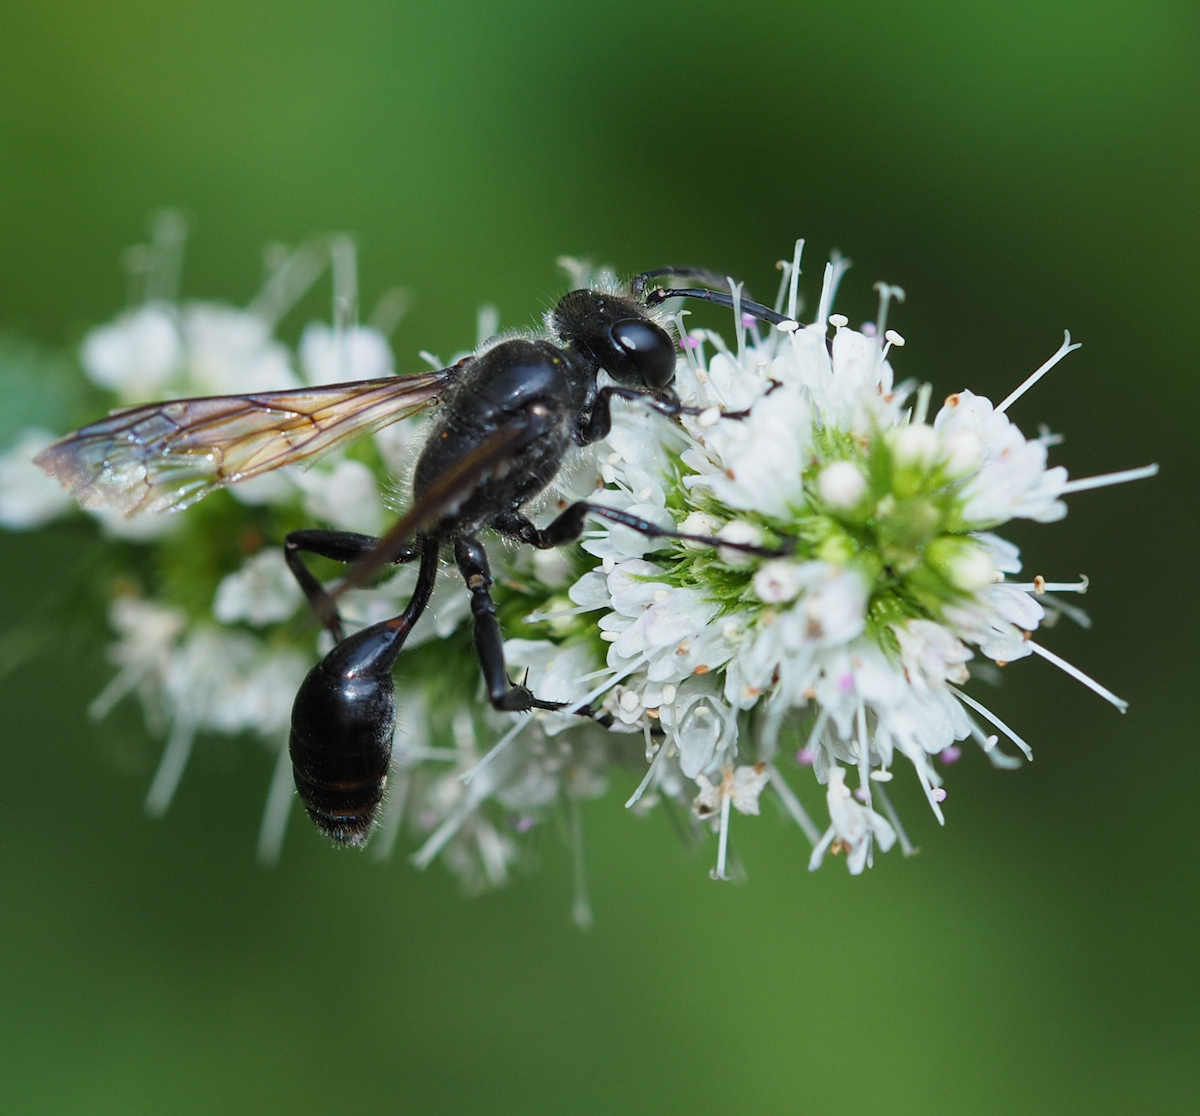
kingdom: Animalia
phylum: Arthropoda
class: Insecta
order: Hymenoptera
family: Sphecidae
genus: Isodontia
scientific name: Isodontia mexicana
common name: Mud dauber
